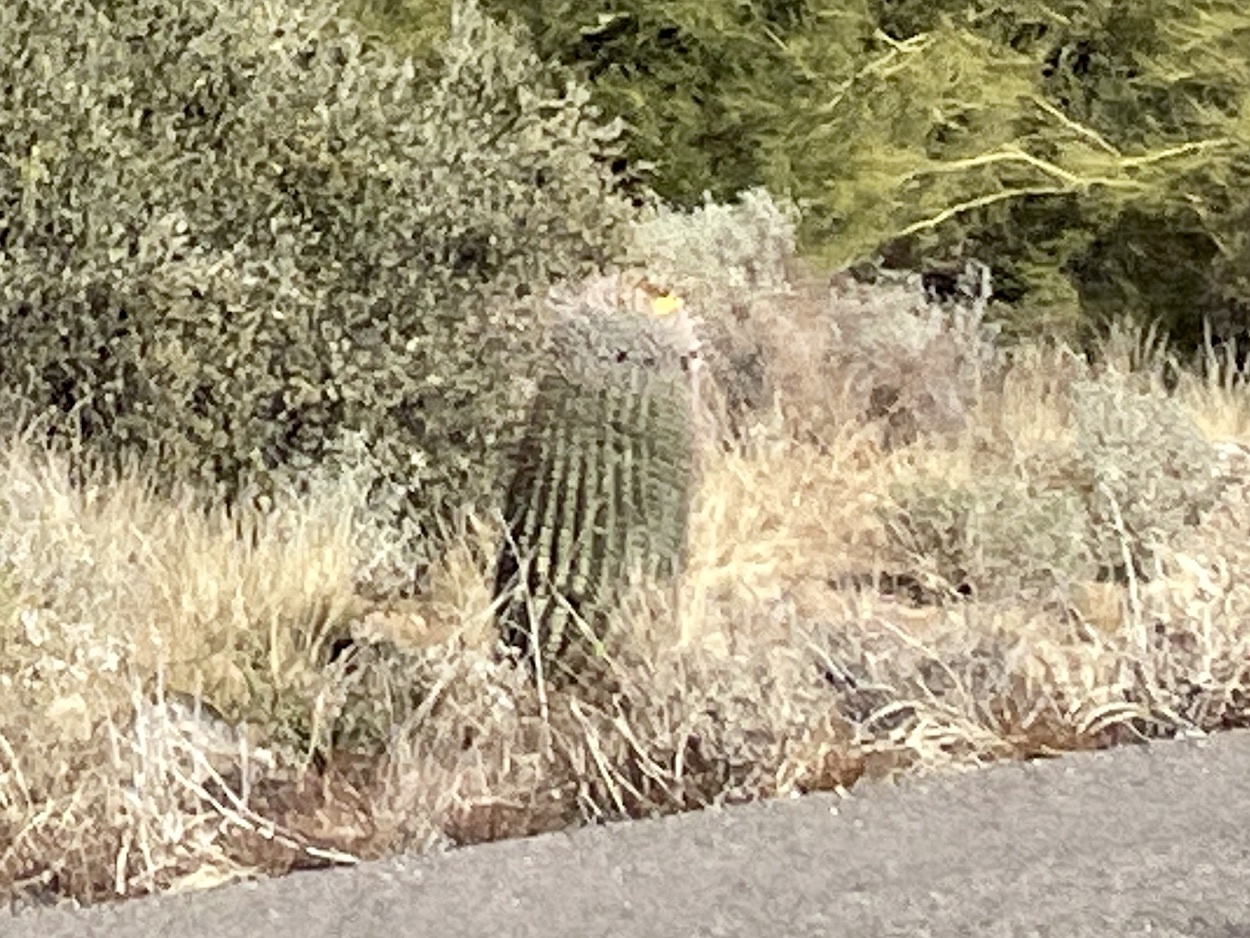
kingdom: Plantae
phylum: Tracheophyta
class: Magnoliopsida
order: Caryophyllales
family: Cactaceae
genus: Ferocactus
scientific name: Ferocactus wislizeni
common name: Candy barrel cactus
